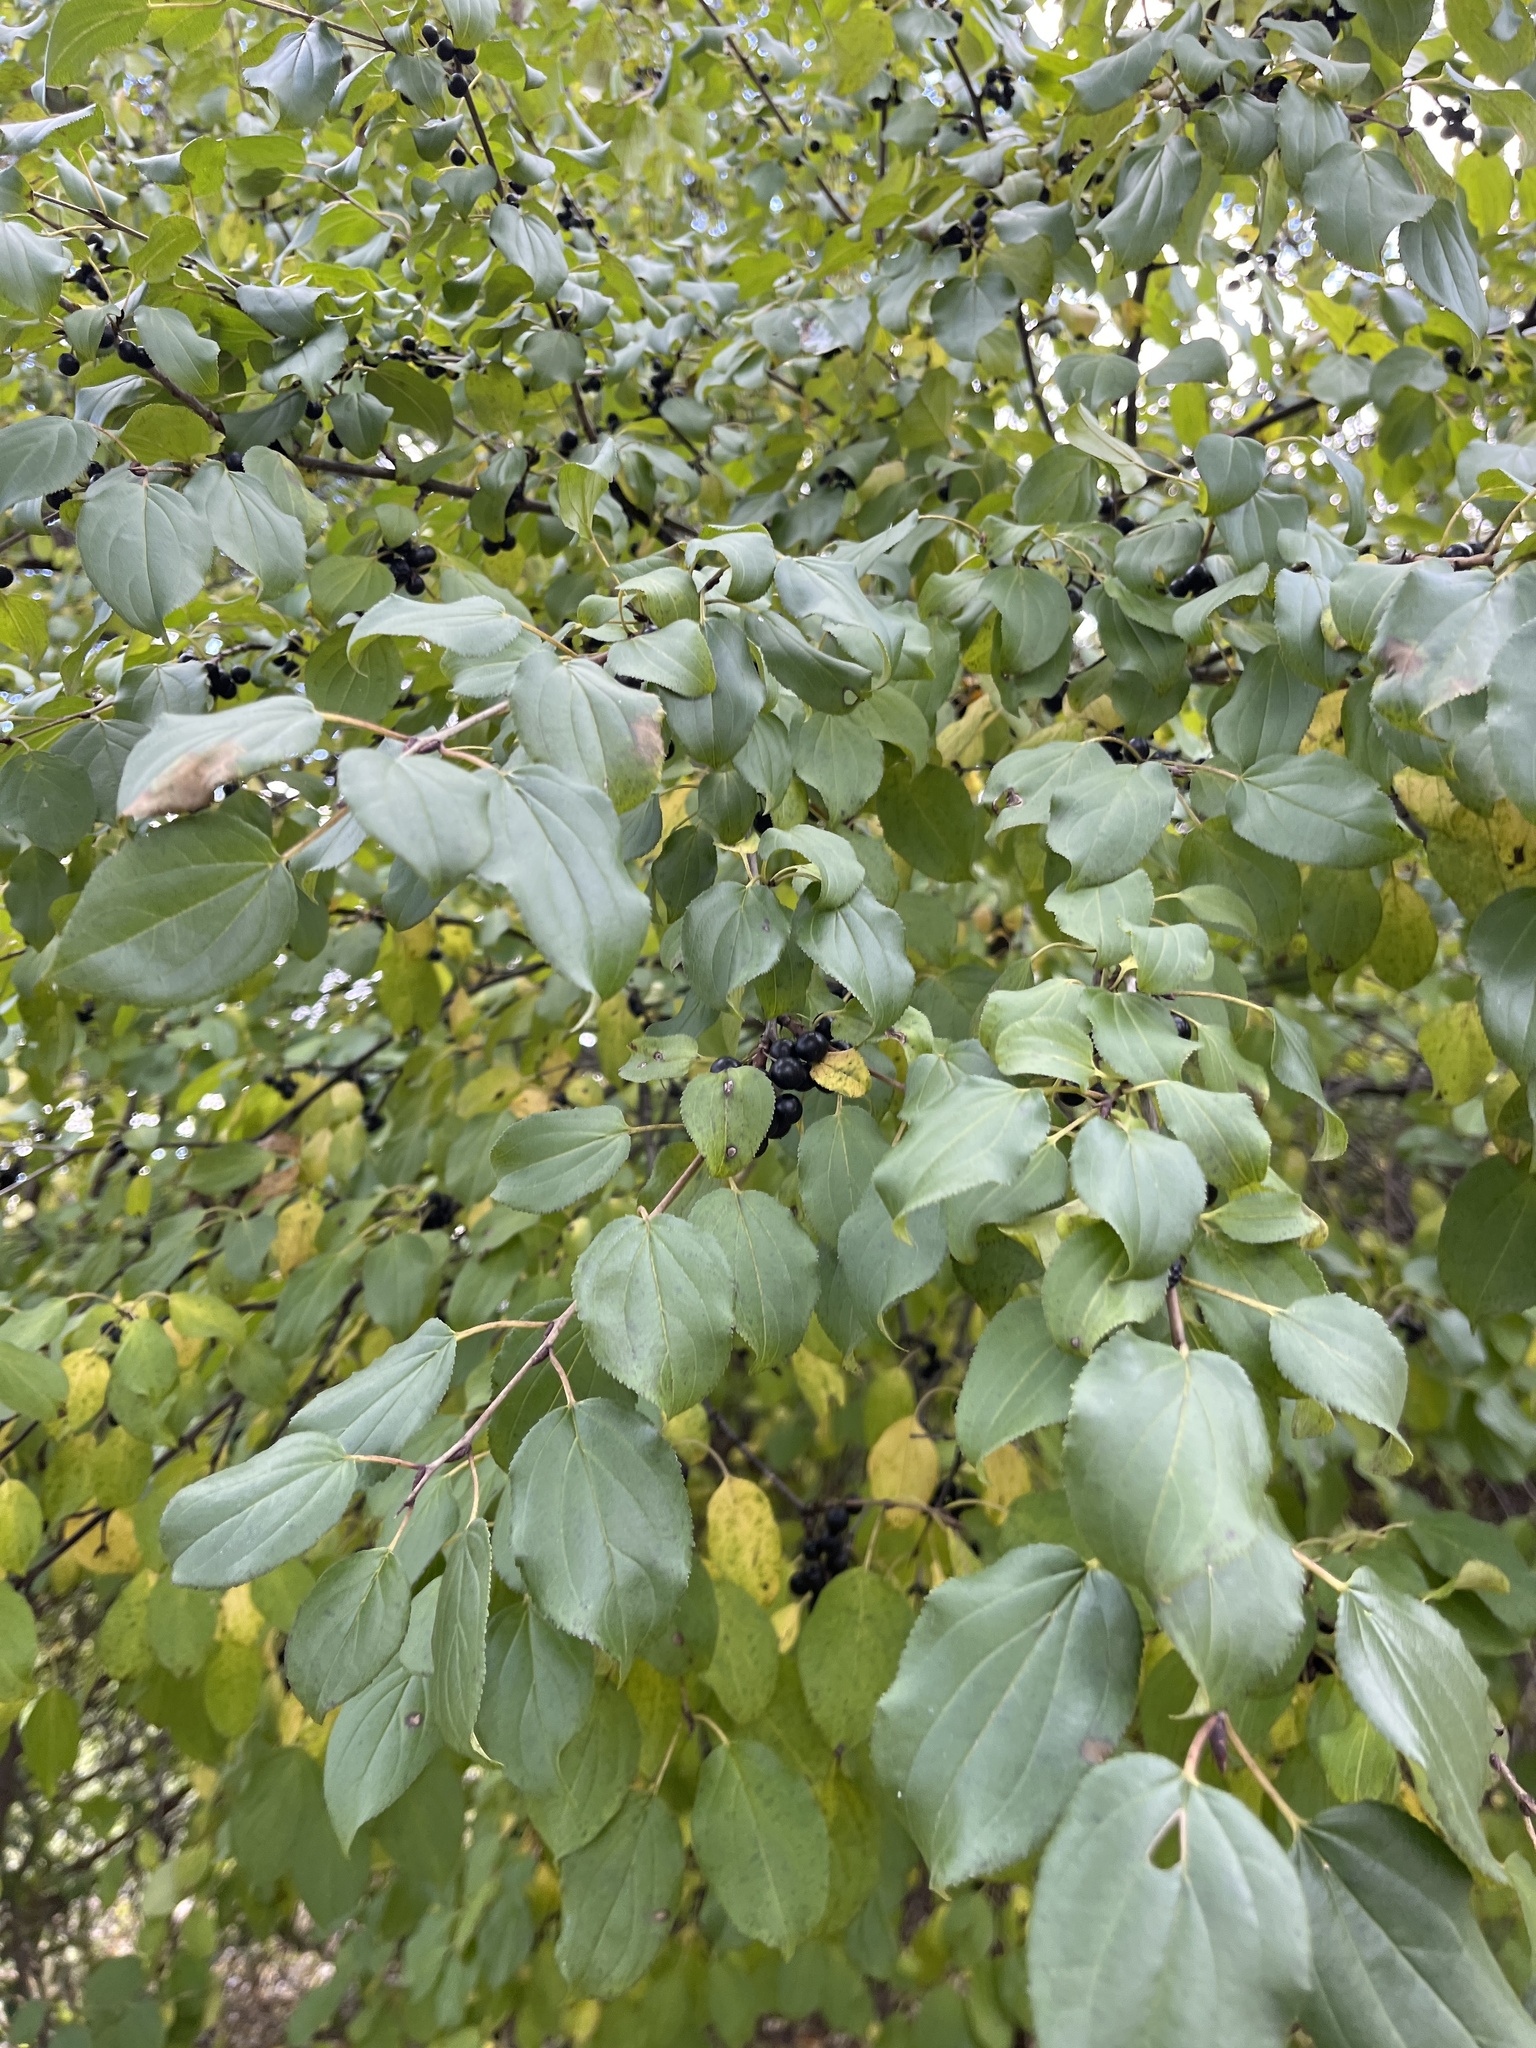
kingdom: Plantae
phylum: Tracheophyta
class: Magnoliopsida
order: Rosales
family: Rhamnaceae
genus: Rhamnus
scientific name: Rhamnus cathartica
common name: Common buckthorn
